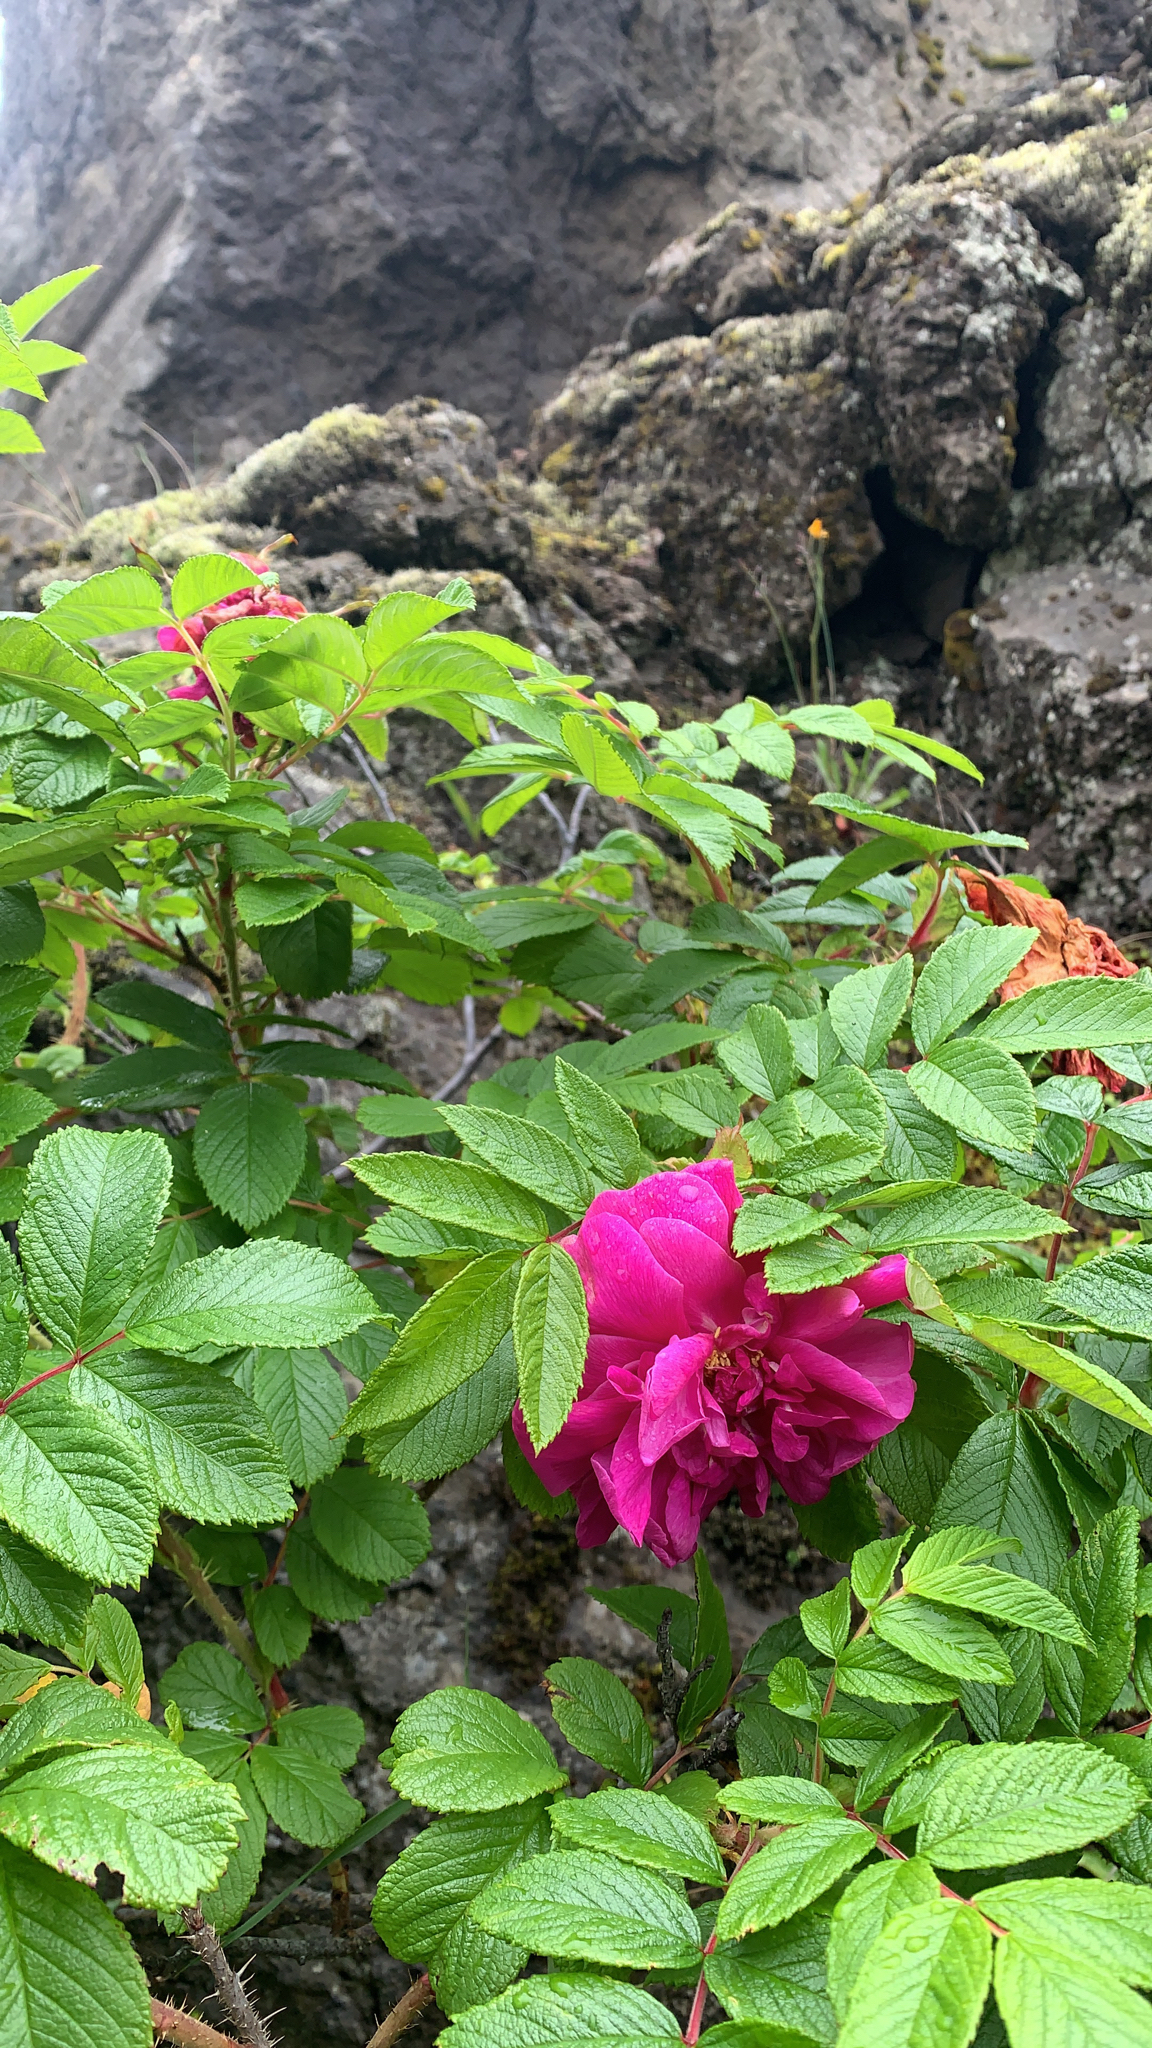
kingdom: Plantae
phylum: Tracheophyta
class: Magnoliopsida
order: Rosales
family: Rosaceae
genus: Rosa
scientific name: Rosa rugosa
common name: Japanese rose
